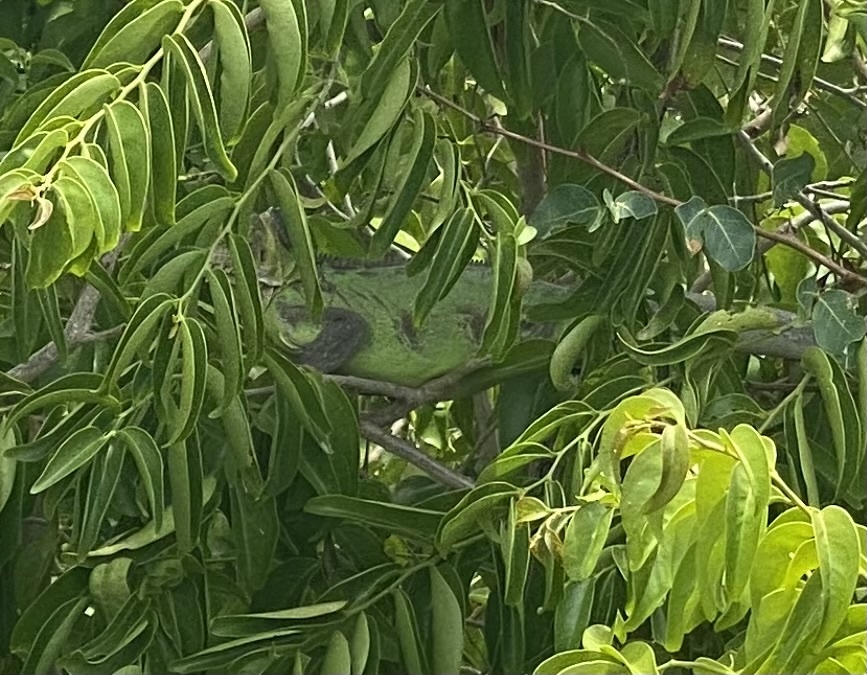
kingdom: Animalia
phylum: Chordata
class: Squamata
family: Iguanidae
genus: Iguana
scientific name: Iguana delicatissima
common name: West indian iguana
